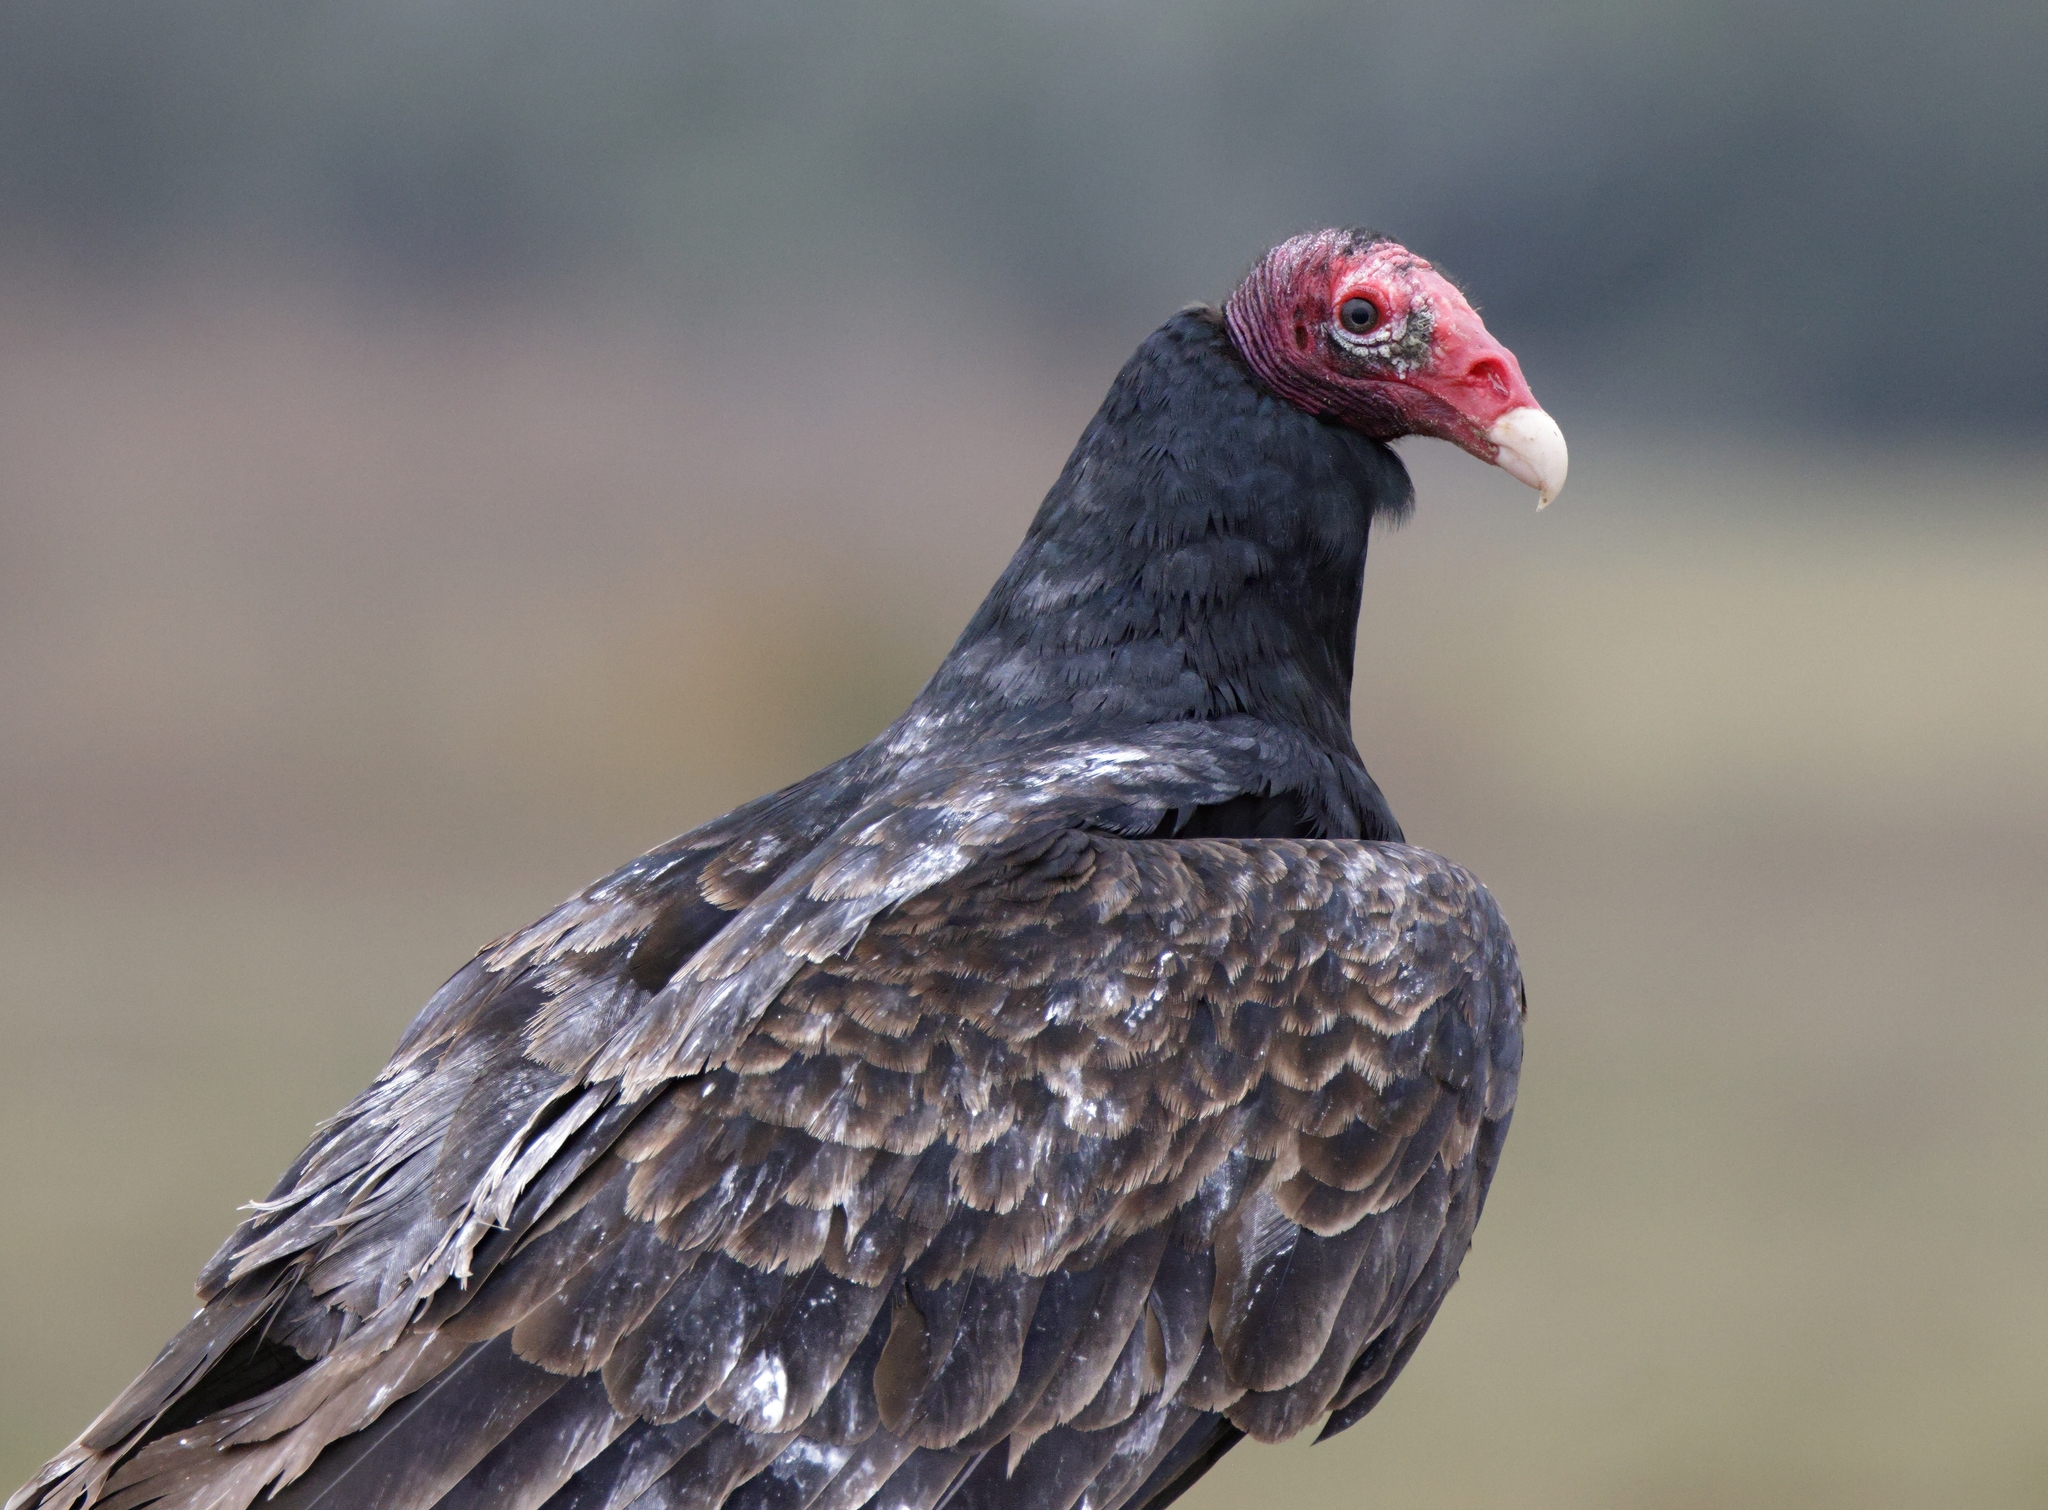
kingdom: Animalia
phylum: Chordata
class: Aves
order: Accipitriformes
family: Cathartidae
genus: Cathartes
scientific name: Cathartes aura
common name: Turkey vulture
